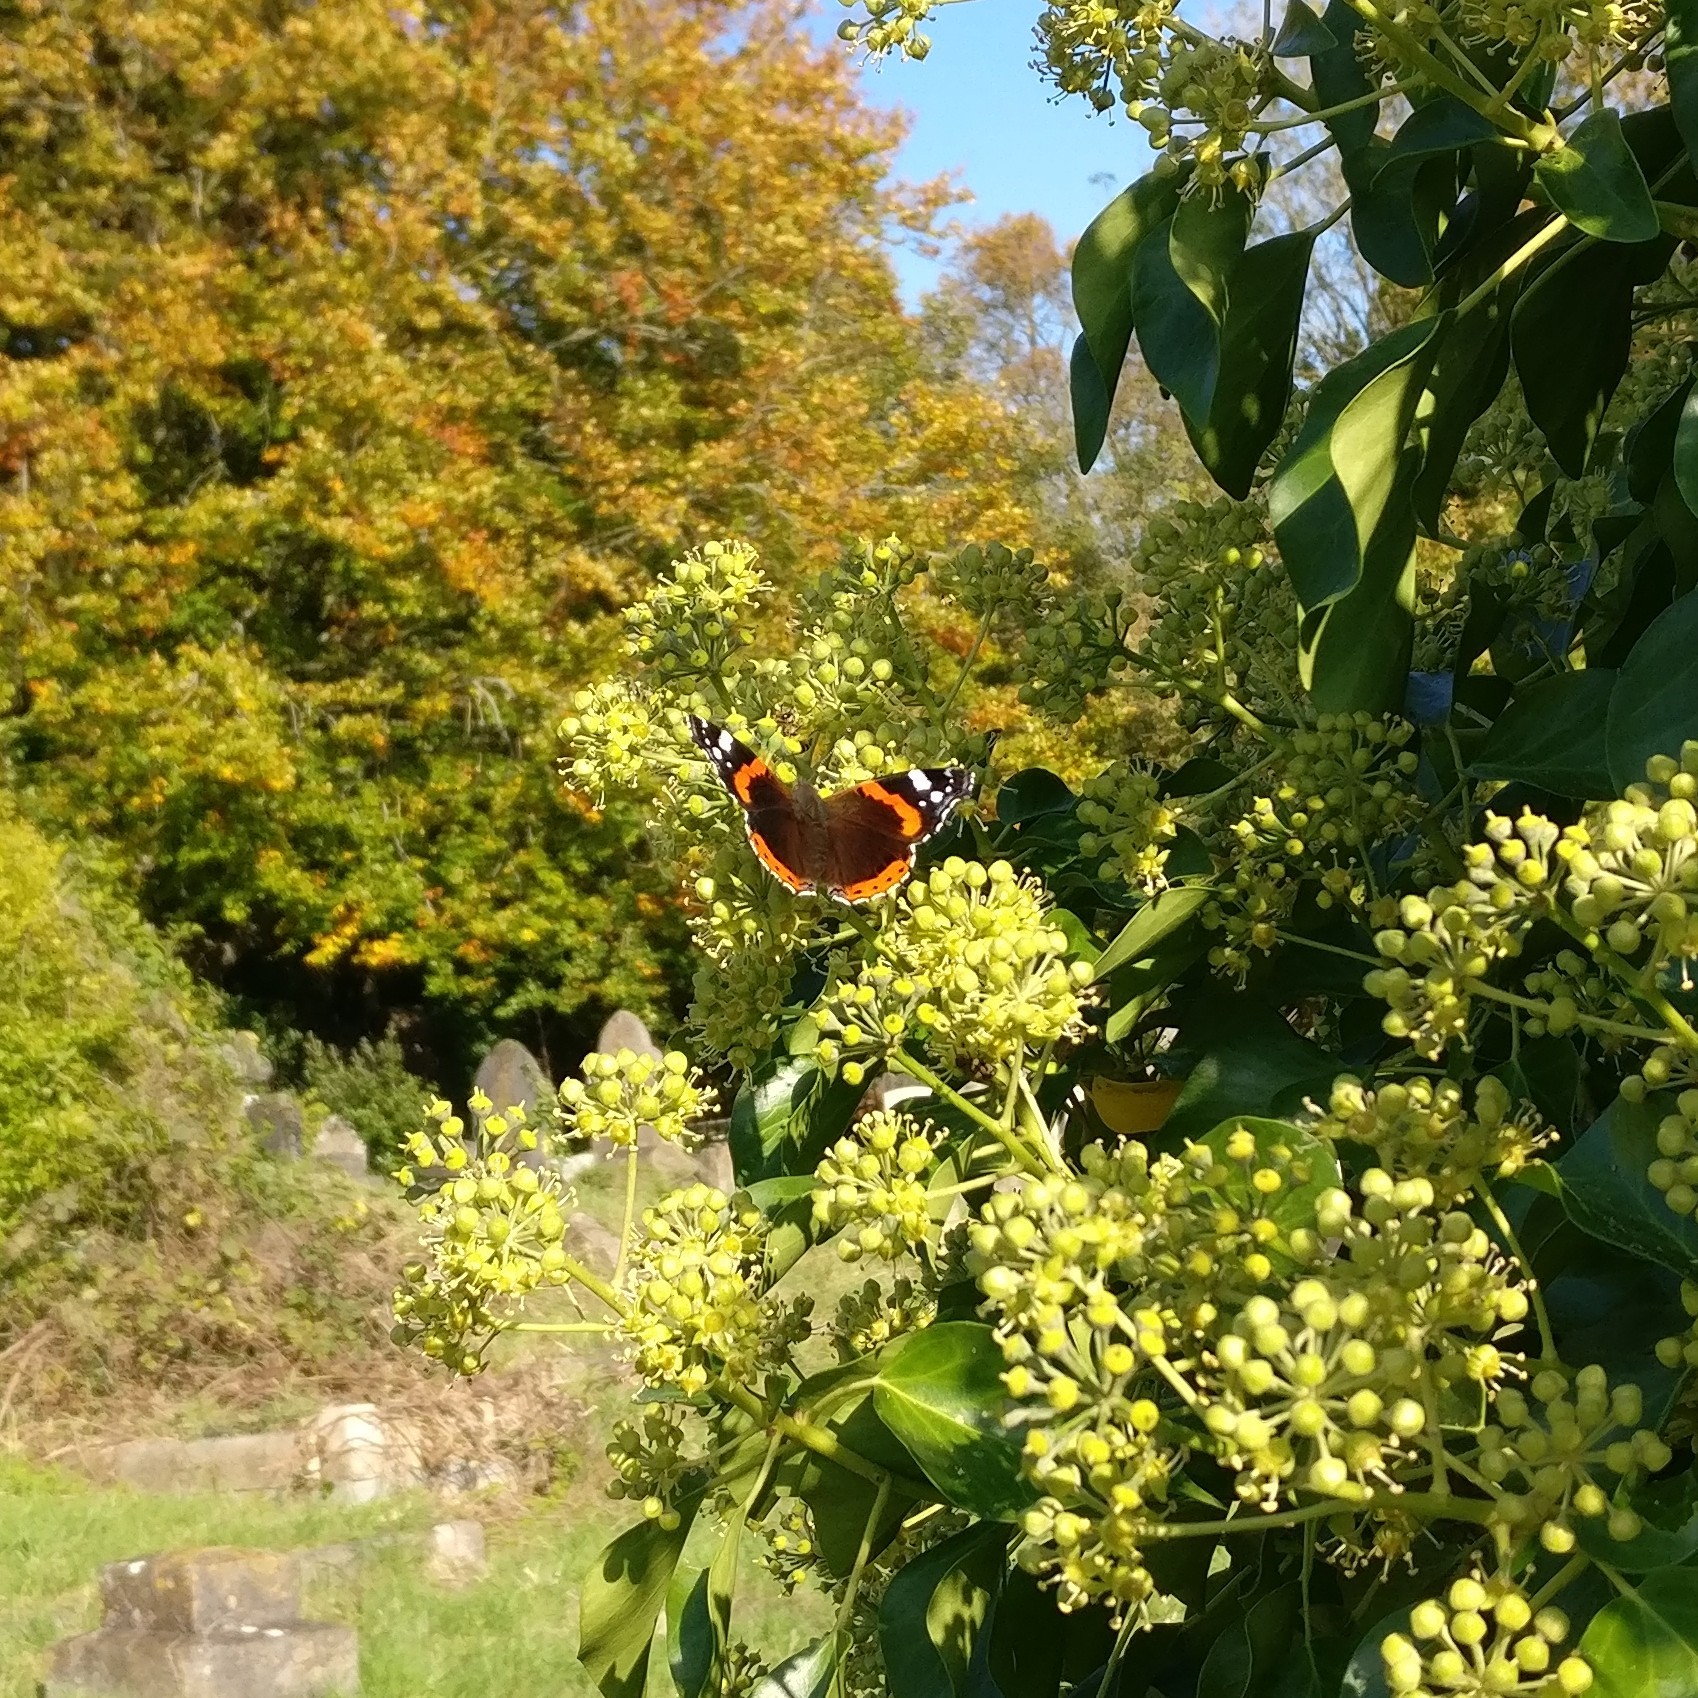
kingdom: Animalia
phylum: Arthropoda
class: Insecta
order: Lepidoptera
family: Nymphalidae
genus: Vanessa
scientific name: Vanessa atalanta
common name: Red admiral
